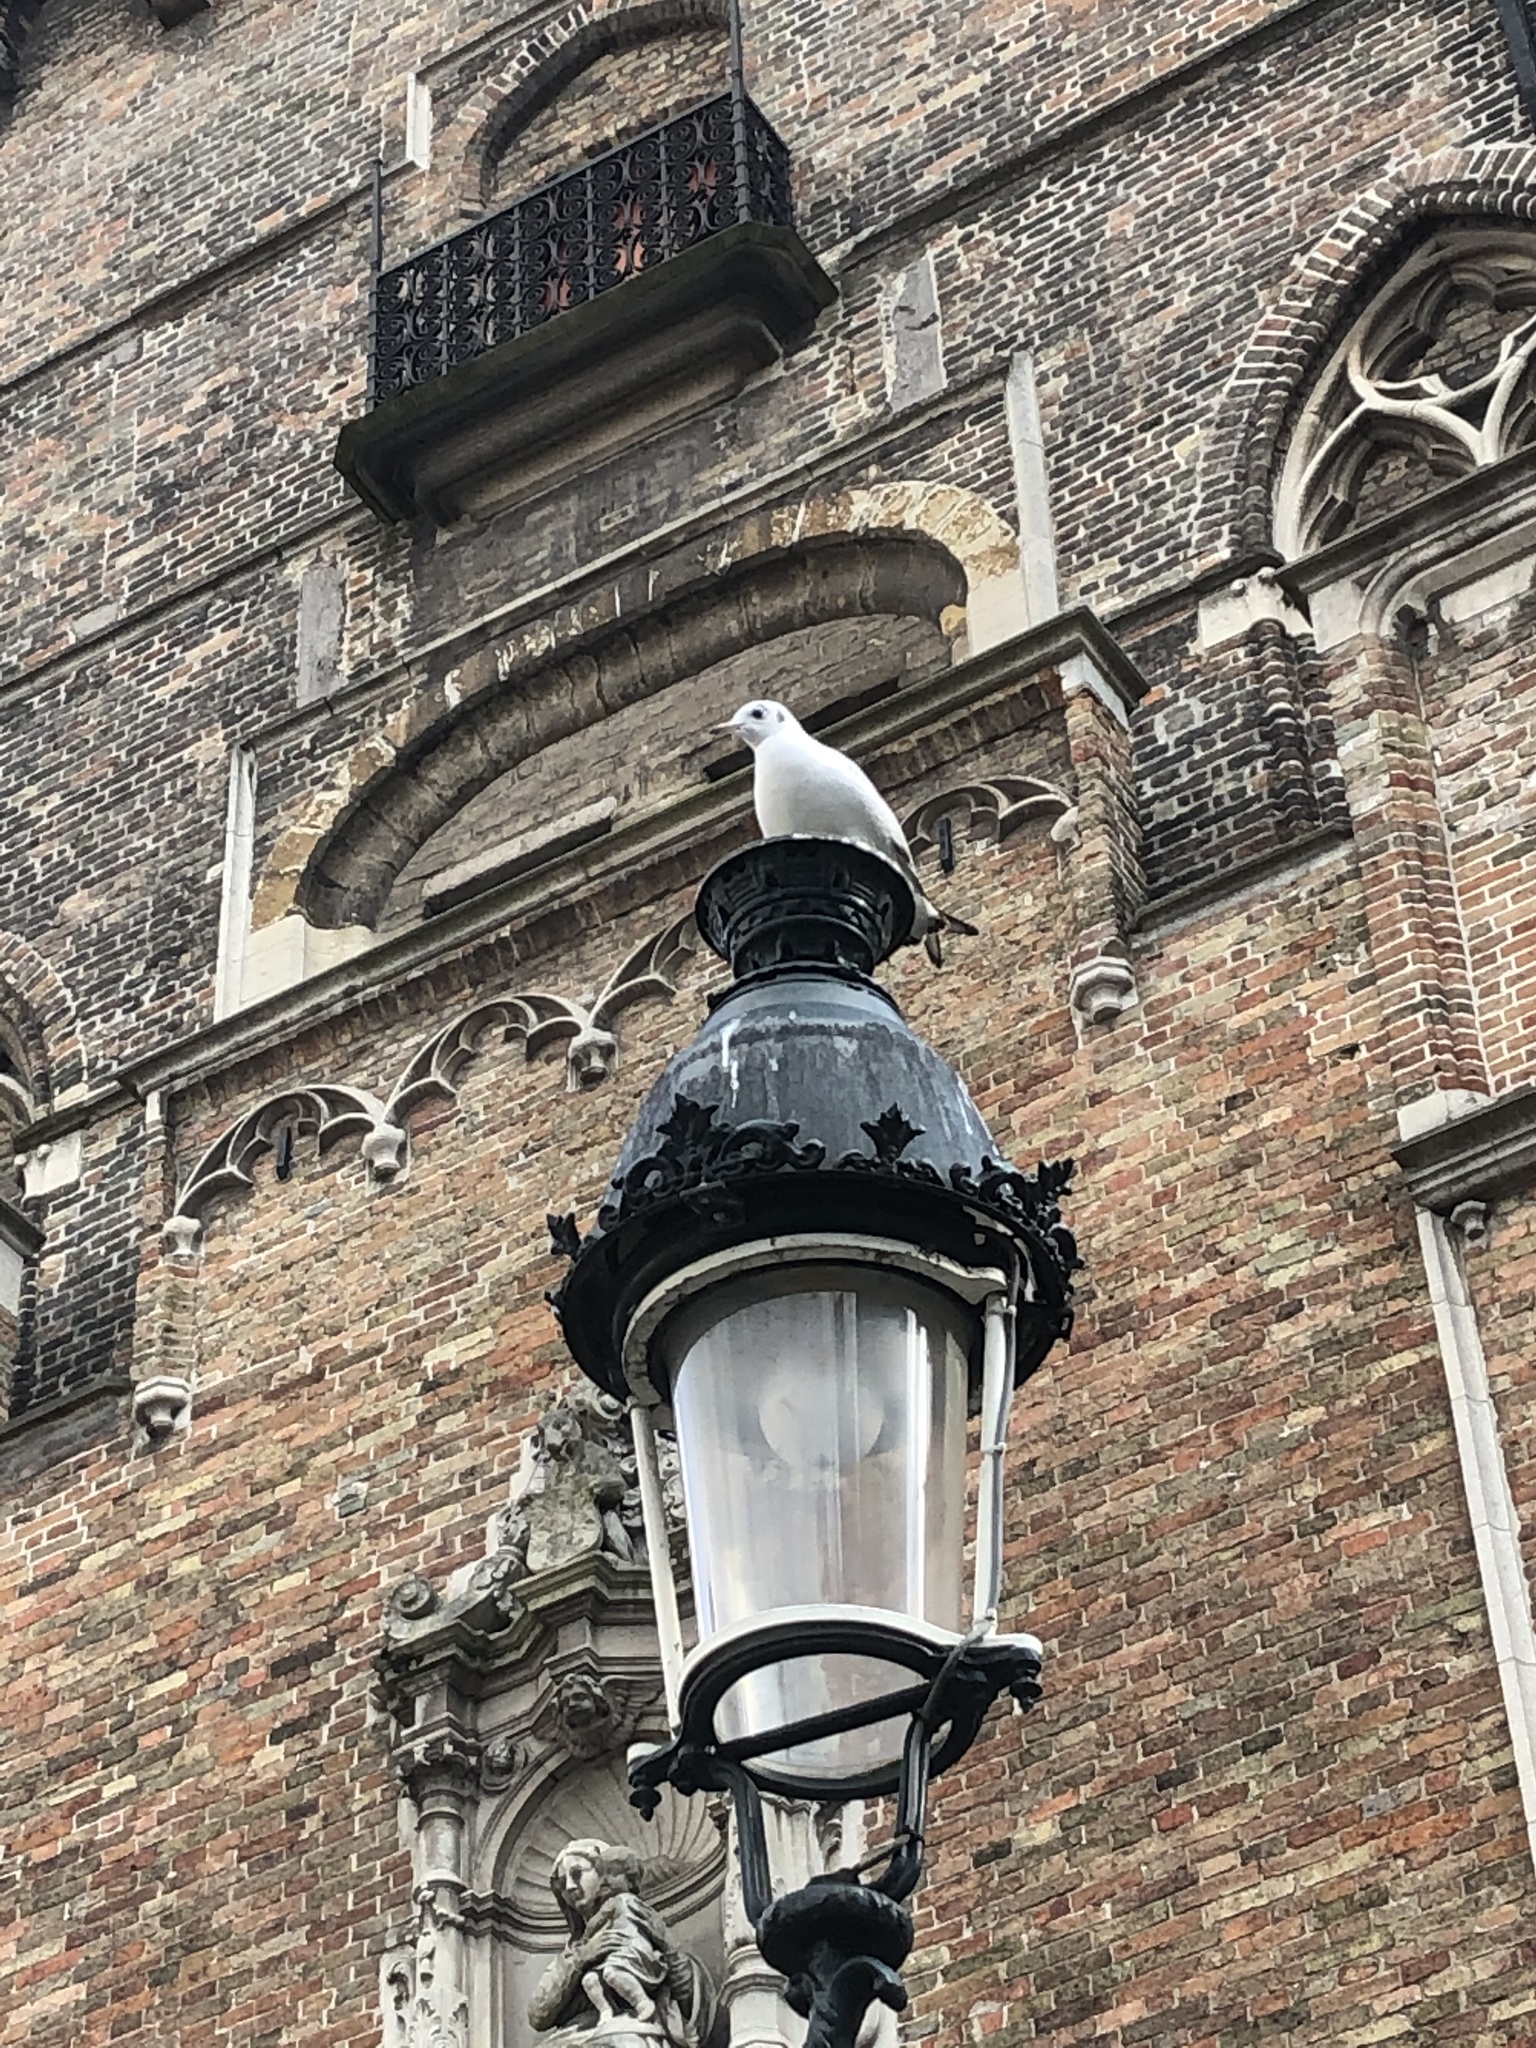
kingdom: Animalia
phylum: Chordata
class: Aves
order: Charadriiformes
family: Laridae
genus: Chroicocephalus
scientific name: Chroicocephalus ridibundus
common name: Black-headed gull
